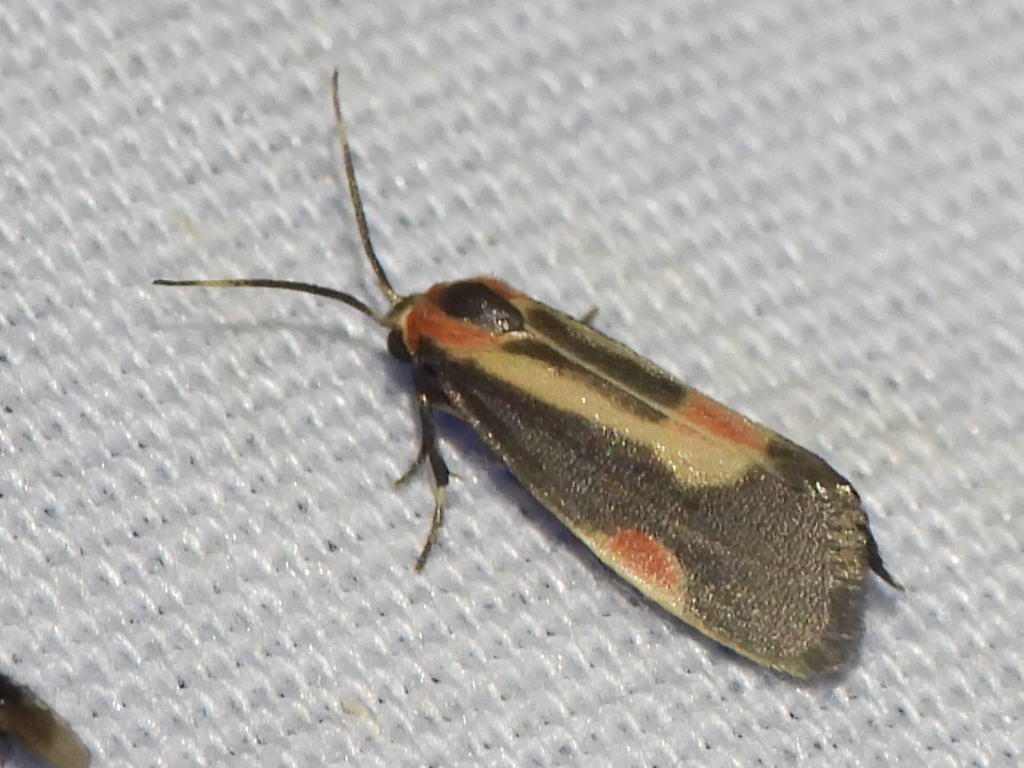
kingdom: Animalia
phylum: Arthropoda
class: Insecta
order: Lepidoptera
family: Erebidae
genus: Cisthene
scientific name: Cisthene packardii
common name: Packard's lichen moth
